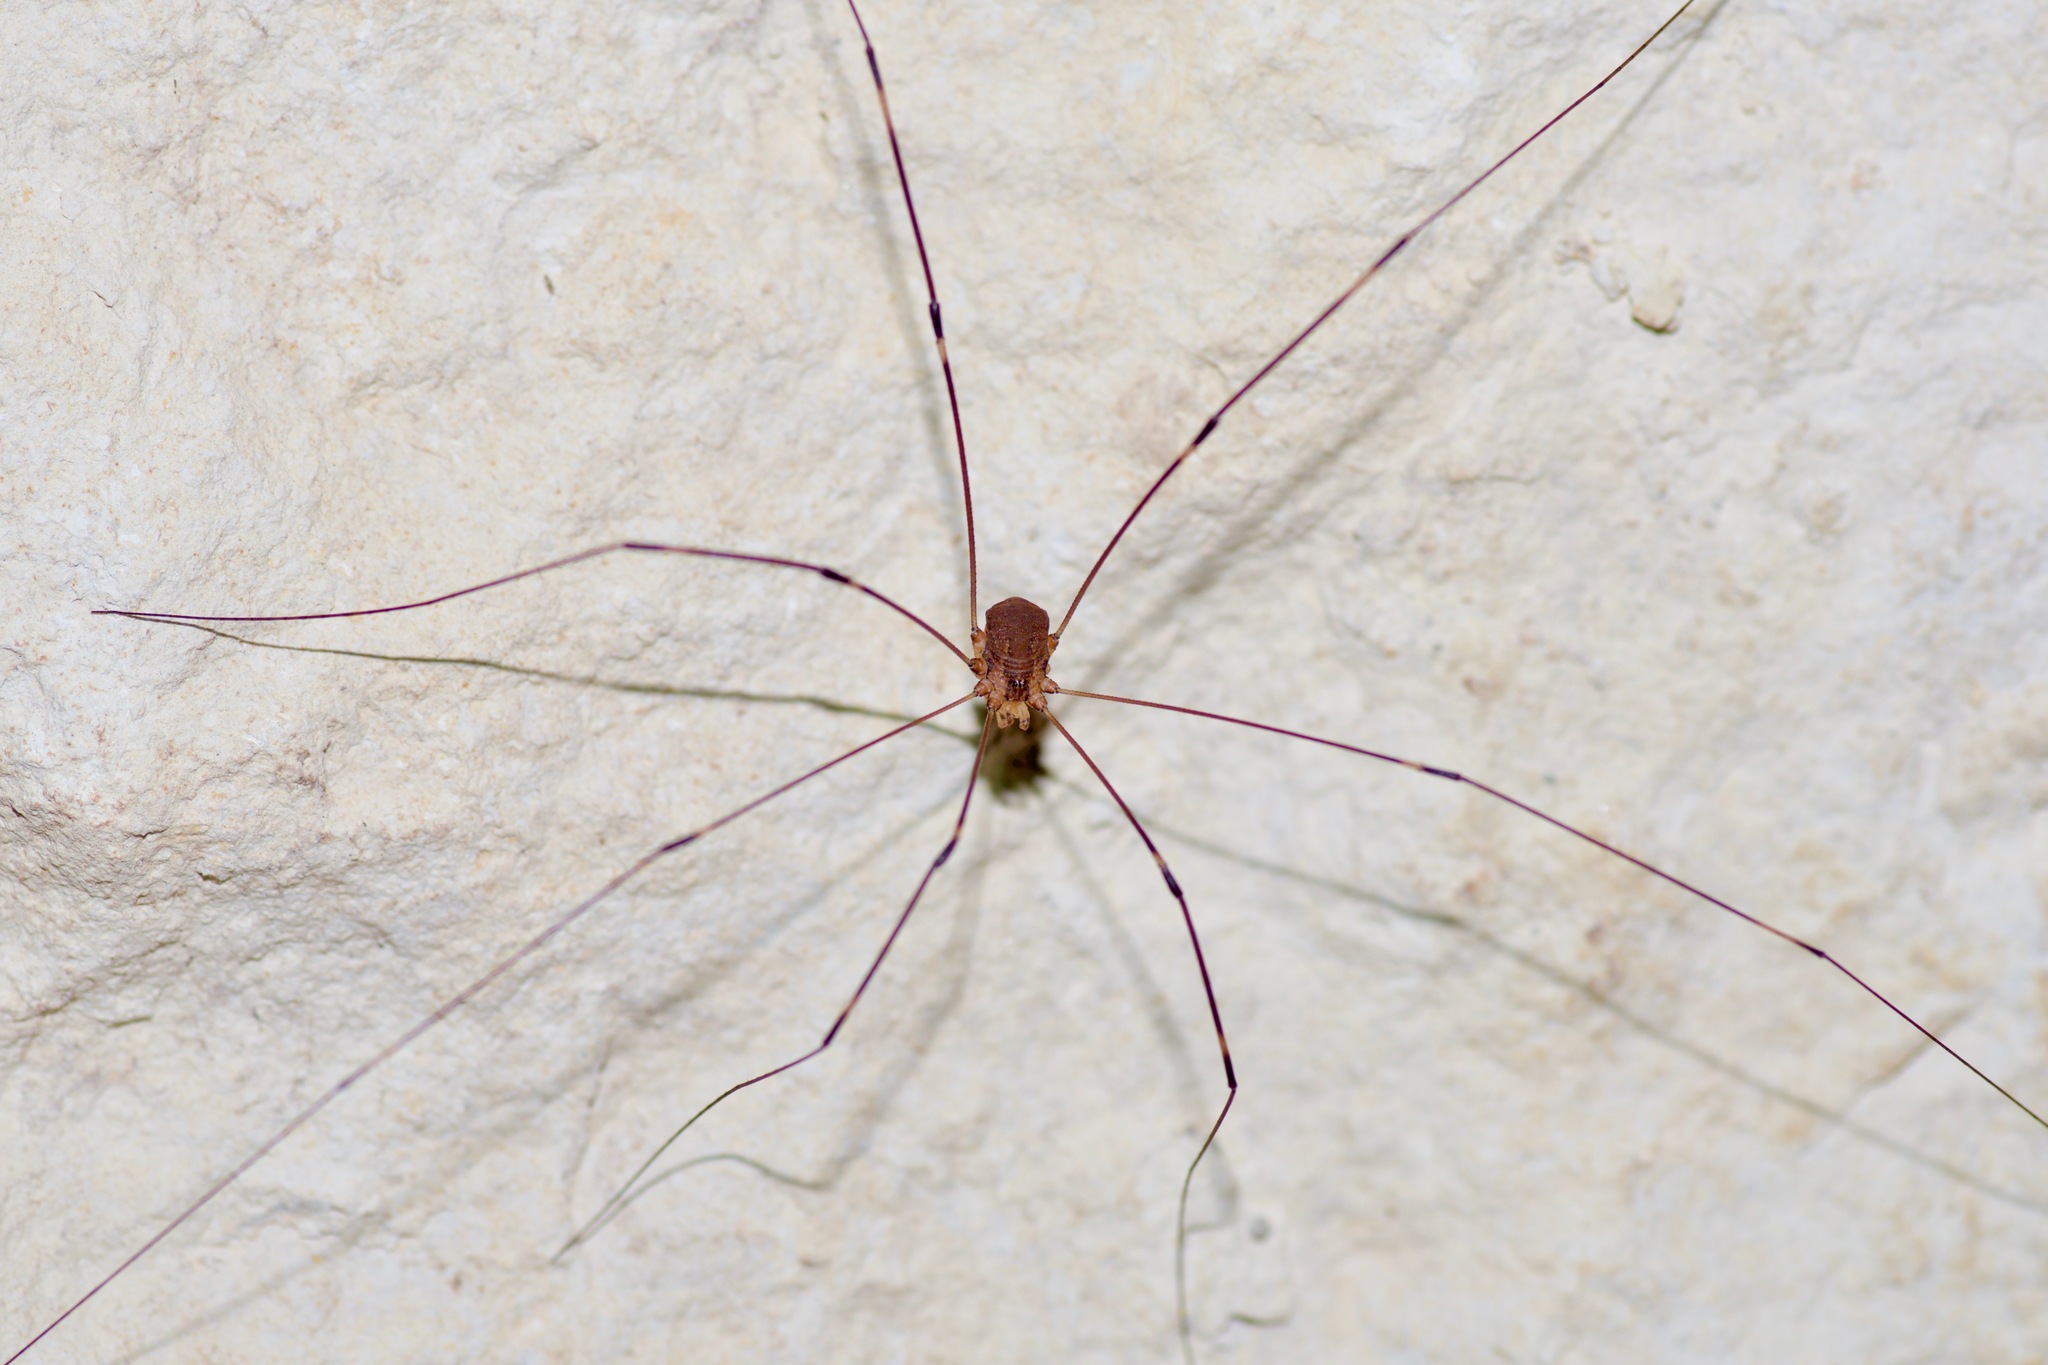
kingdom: Animalia
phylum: Arthropoda
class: Arachnida
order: Opiliones
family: Sclerosomatidae
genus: Leiobunum
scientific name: Leiobunum townsendi
